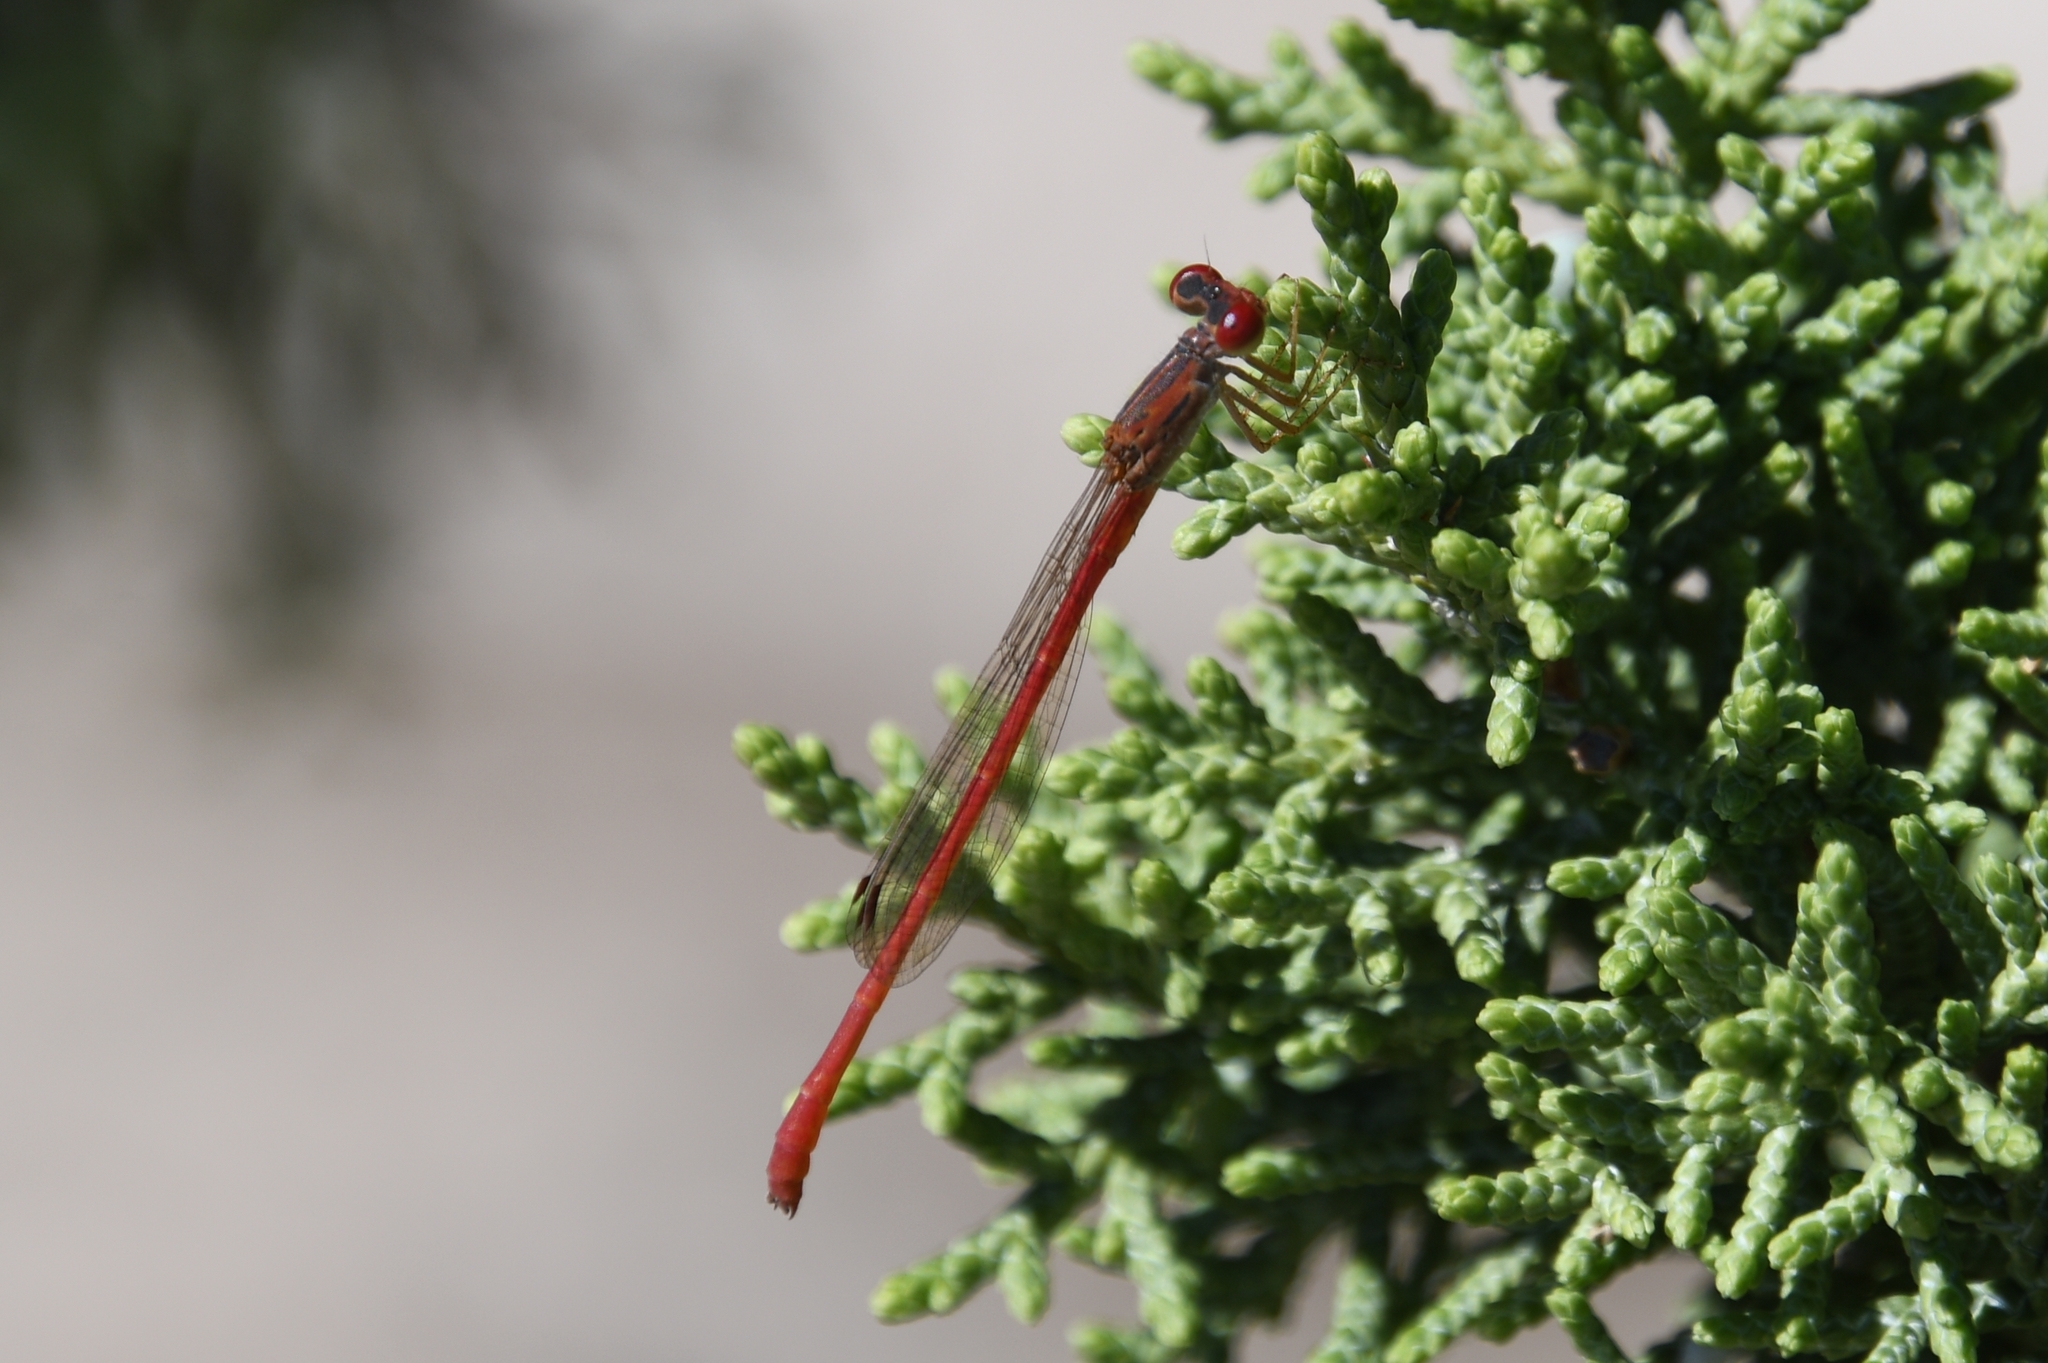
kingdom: Animalia
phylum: Arthropoda
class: Insecta
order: Odonata
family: Coenagrionidae
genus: Telebasis
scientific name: Telebasis salva
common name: Desert firetail
